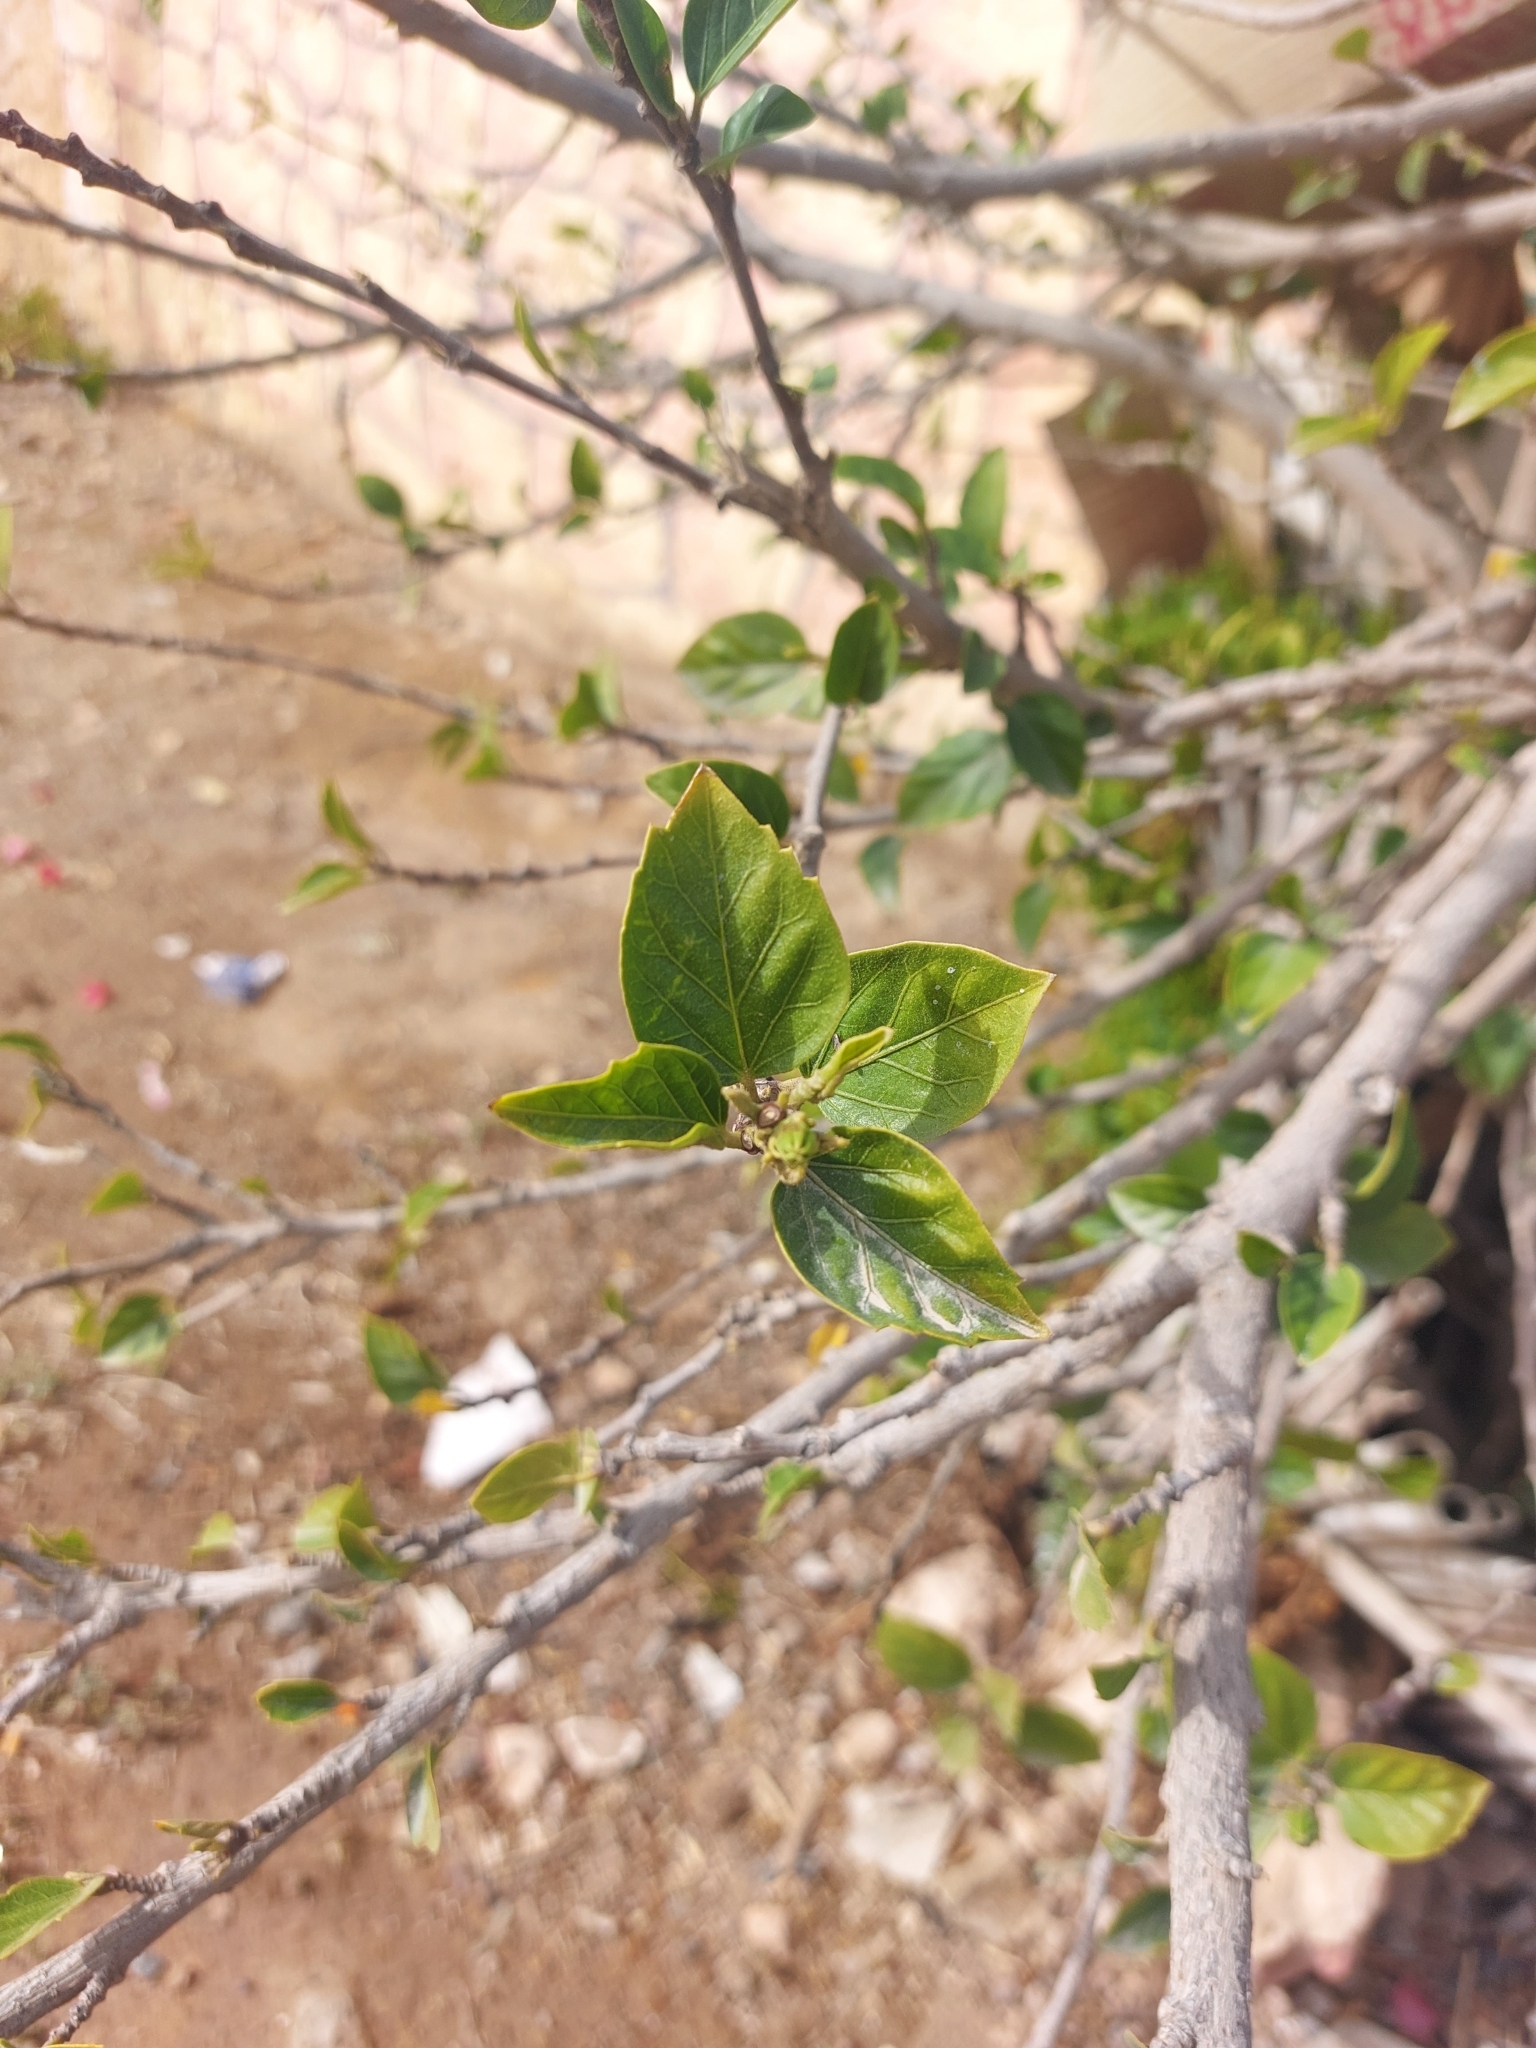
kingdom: Plantae
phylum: Tracheophyta
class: Magnoliopsida
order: Malvales
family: Malvaceae
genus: Hibiscus
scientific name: Hibiscus rosa-sinensis
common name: Hibiscus
